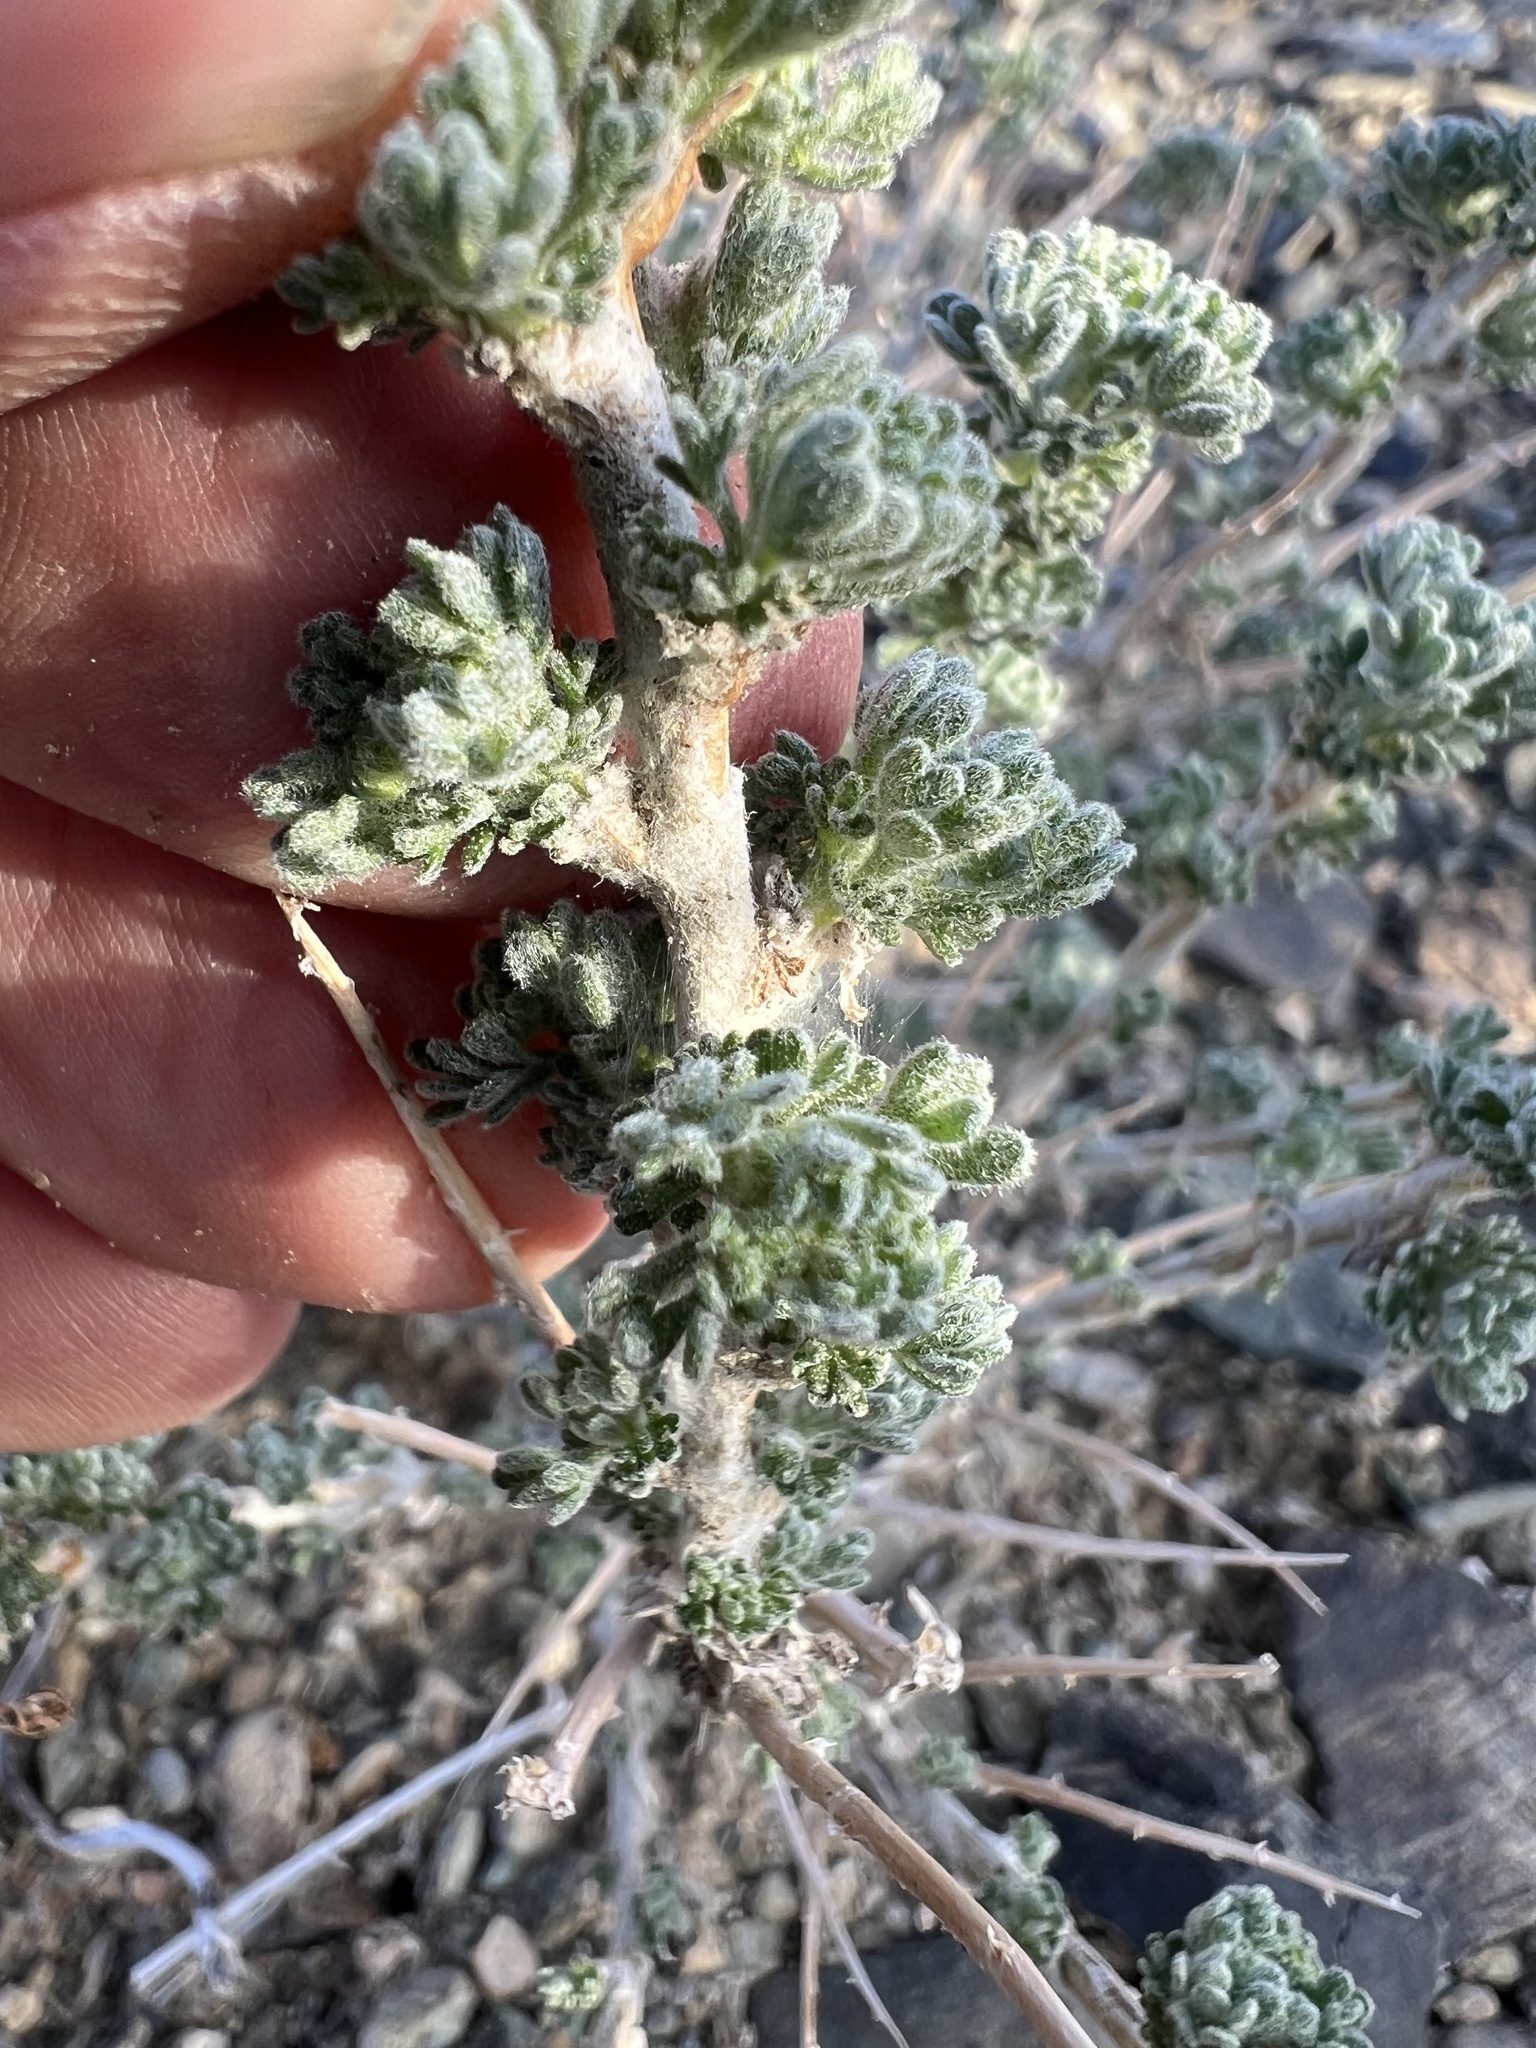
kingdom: Plantae
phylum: Tracheophyta
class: Magnoliopsida
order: Asterales
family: Asteraceae
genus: Artemisia
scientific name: Artemisia spinescens
